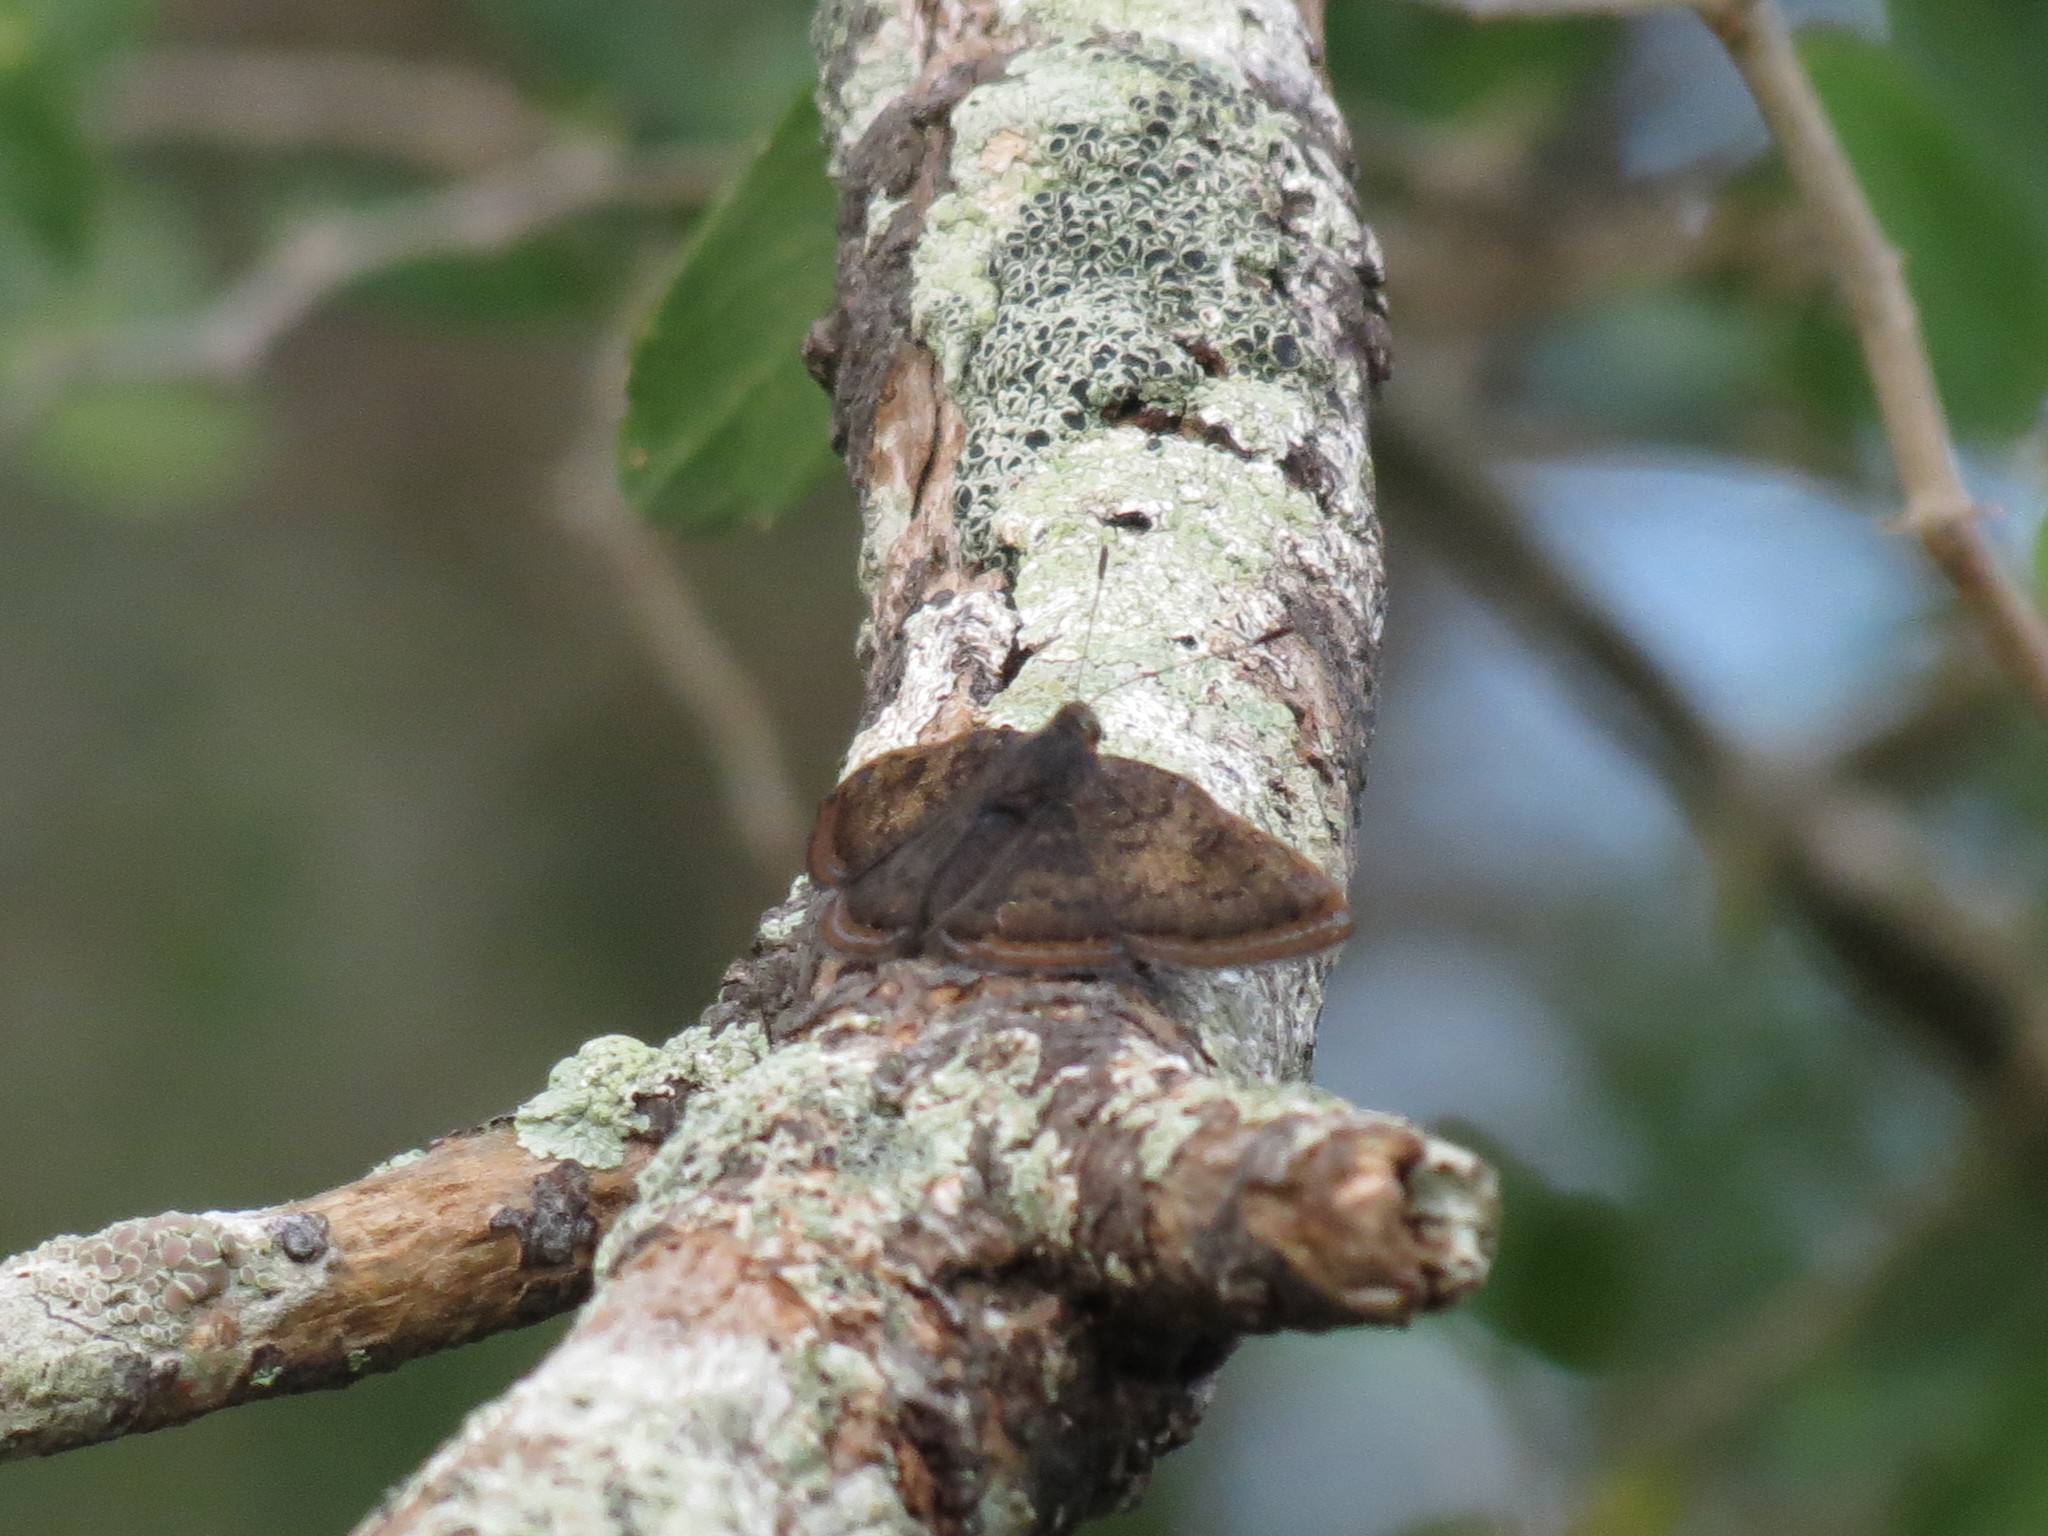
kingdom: Animalia
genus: Caria
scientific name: Caria ino
